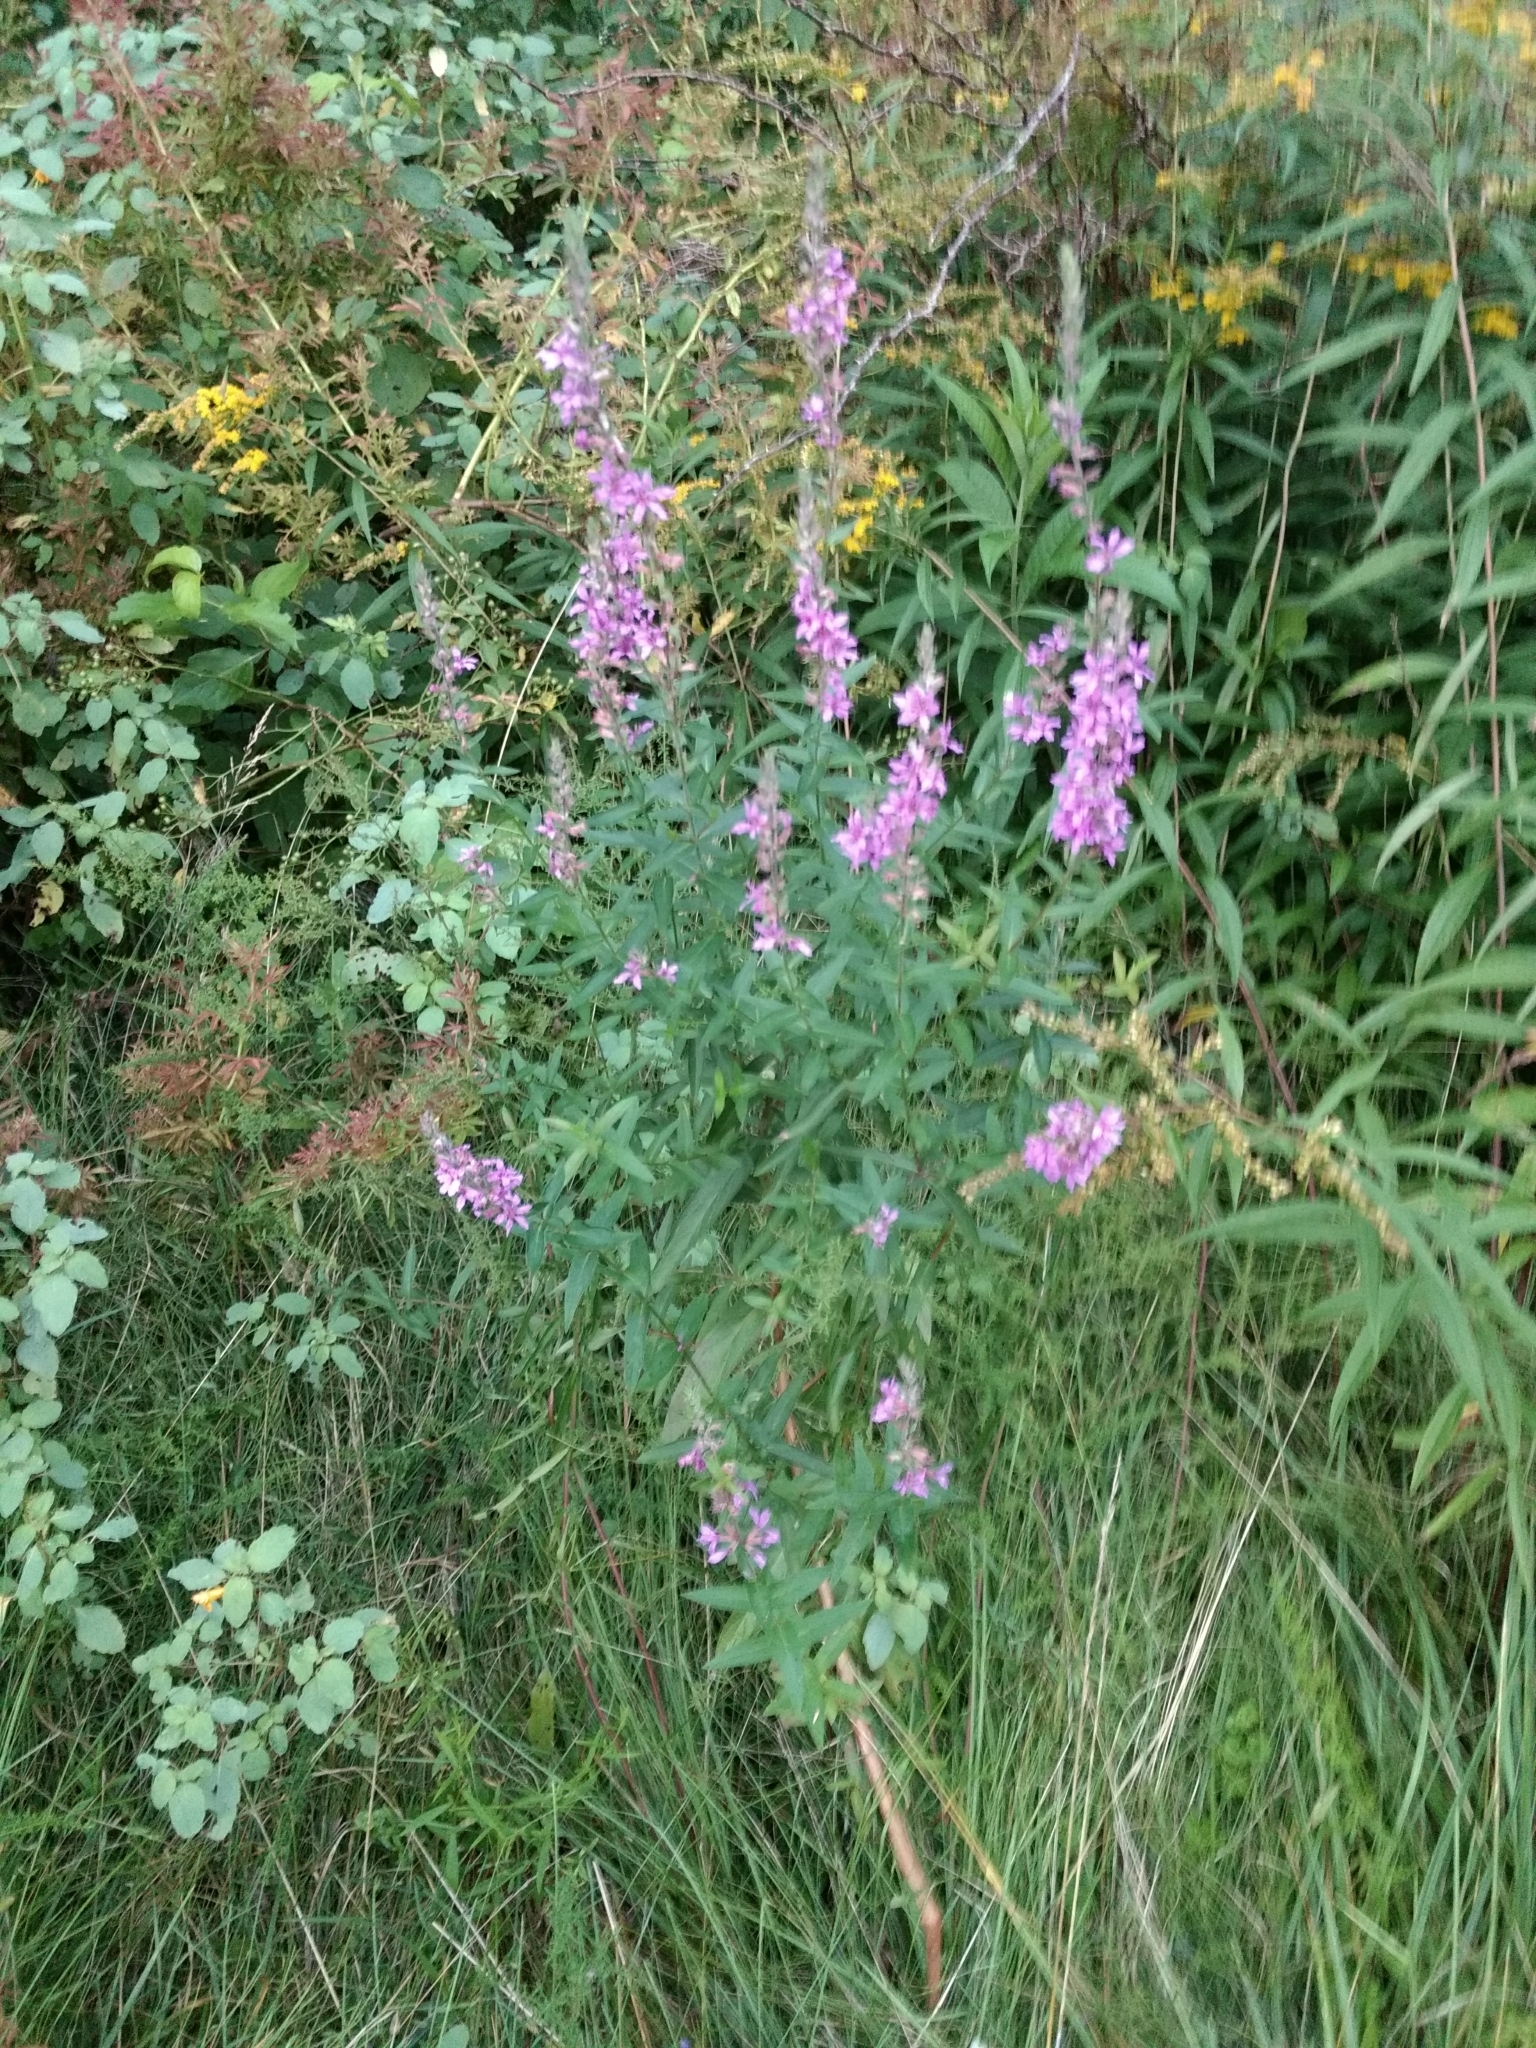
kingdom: Plantae
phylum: Tracheophyta
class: Magnoliopsida
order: Myrtales
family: Lythraceae
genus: Lythrum
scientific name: Lythrum salicaria
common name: Purple loosestrife
